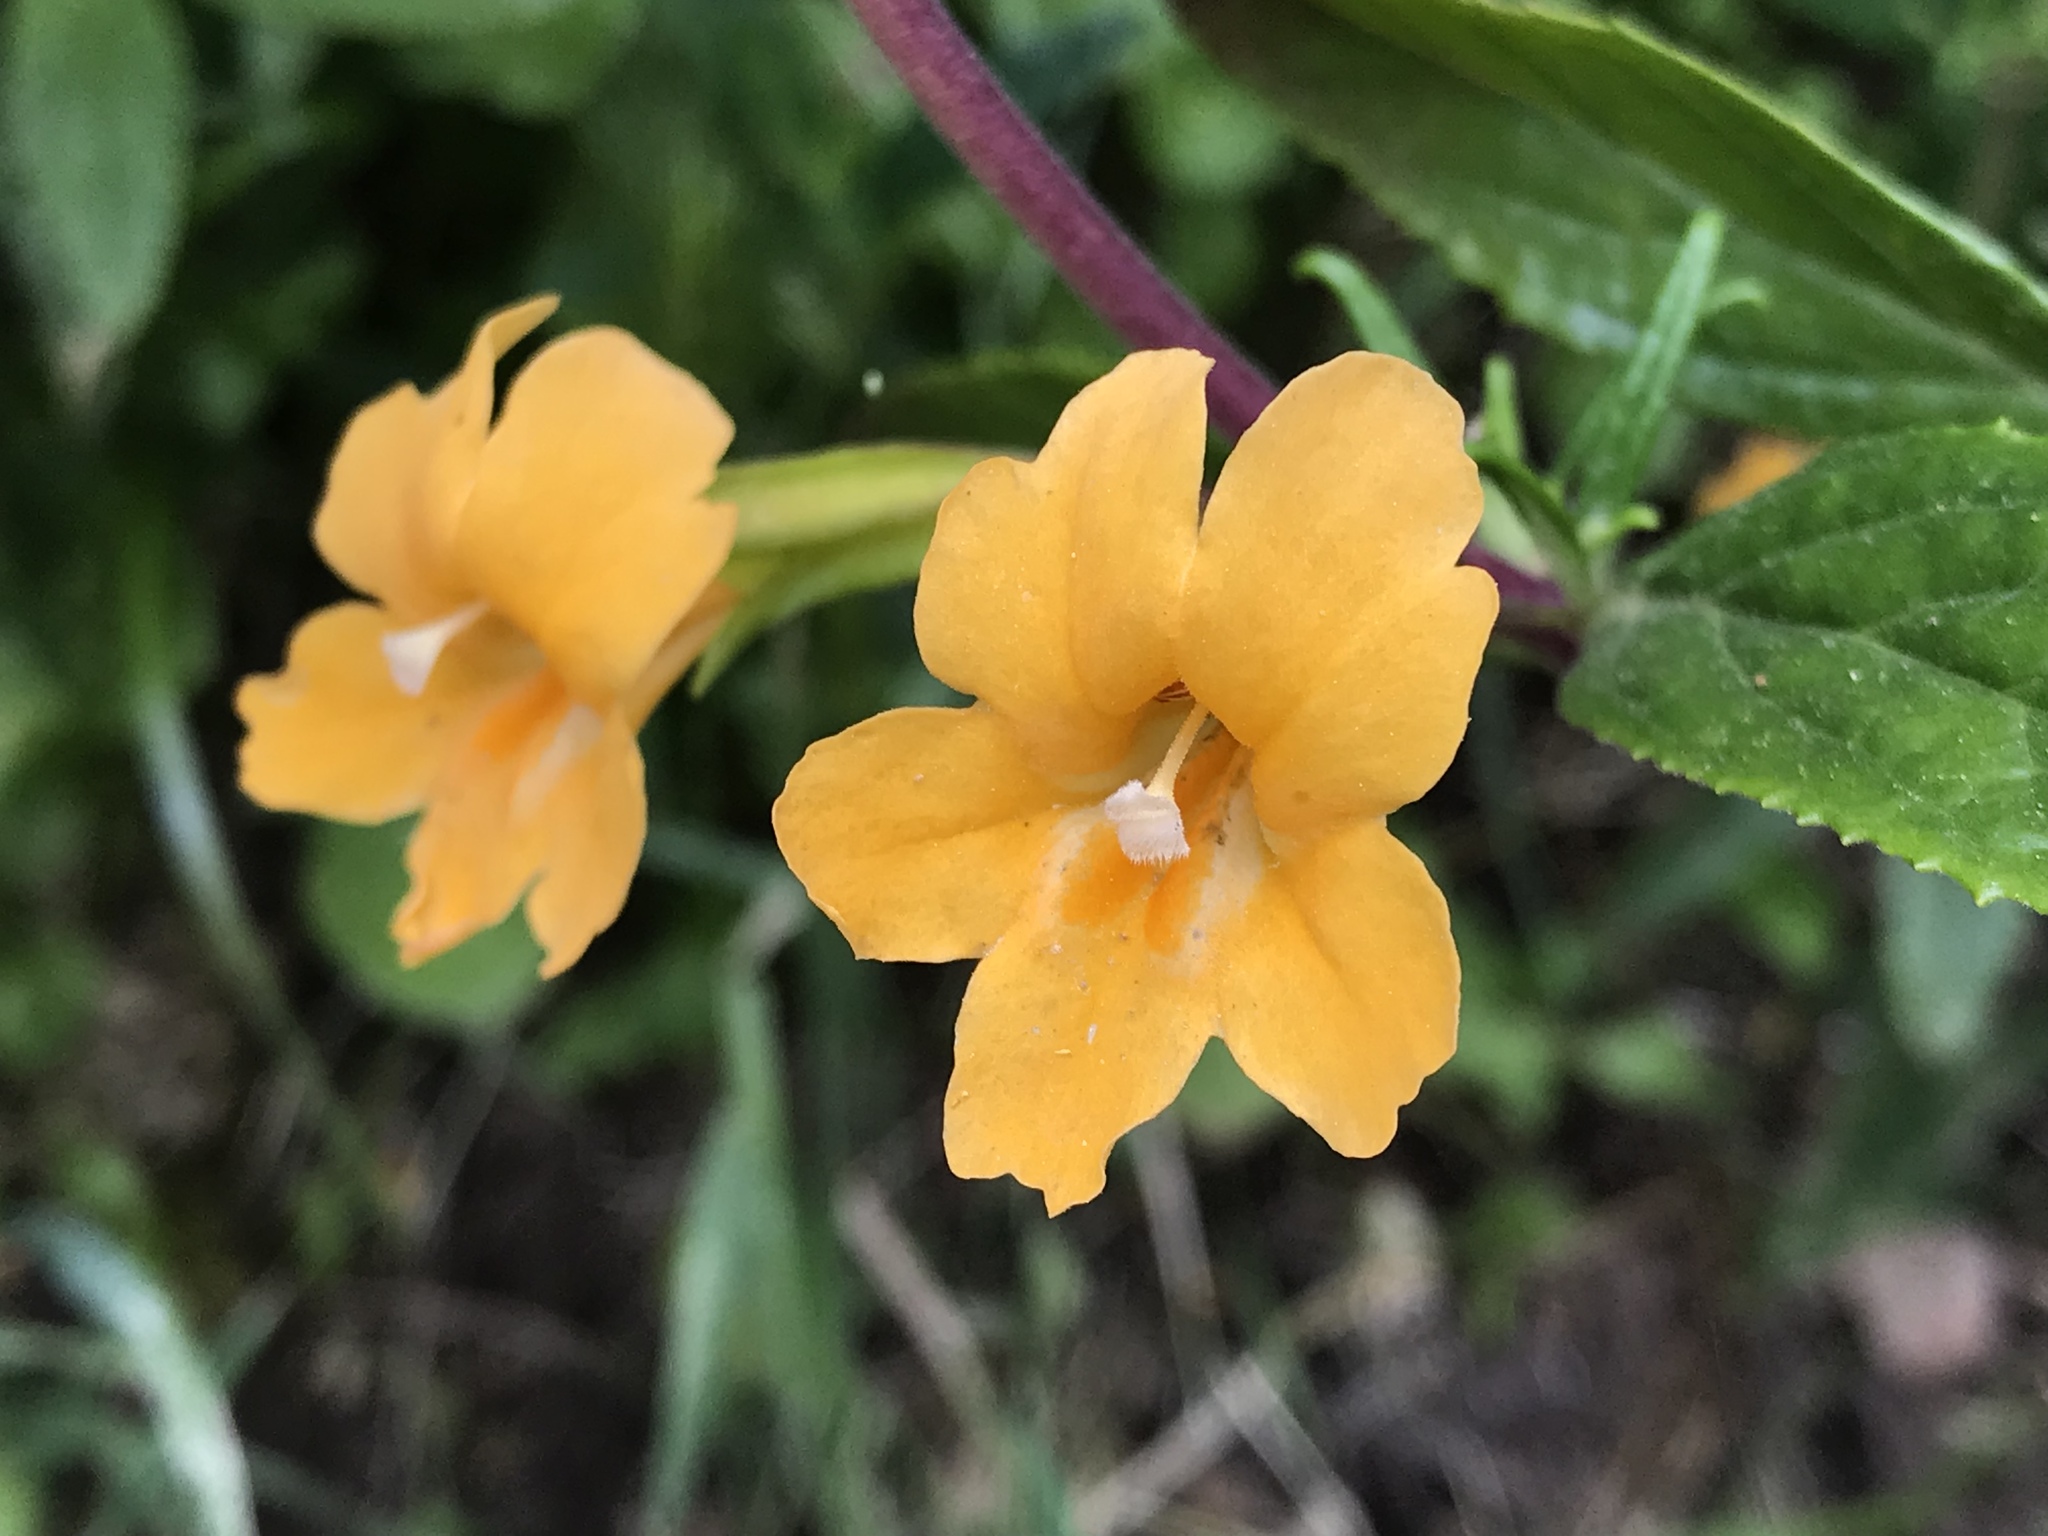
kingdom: Plantae
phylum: Tracheophyta
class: Magnoliopsida
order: Lamiales
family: Phrymaceae
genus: Diplacus
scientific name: Diplacus aurantiacus
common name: Bush monkey-flower
